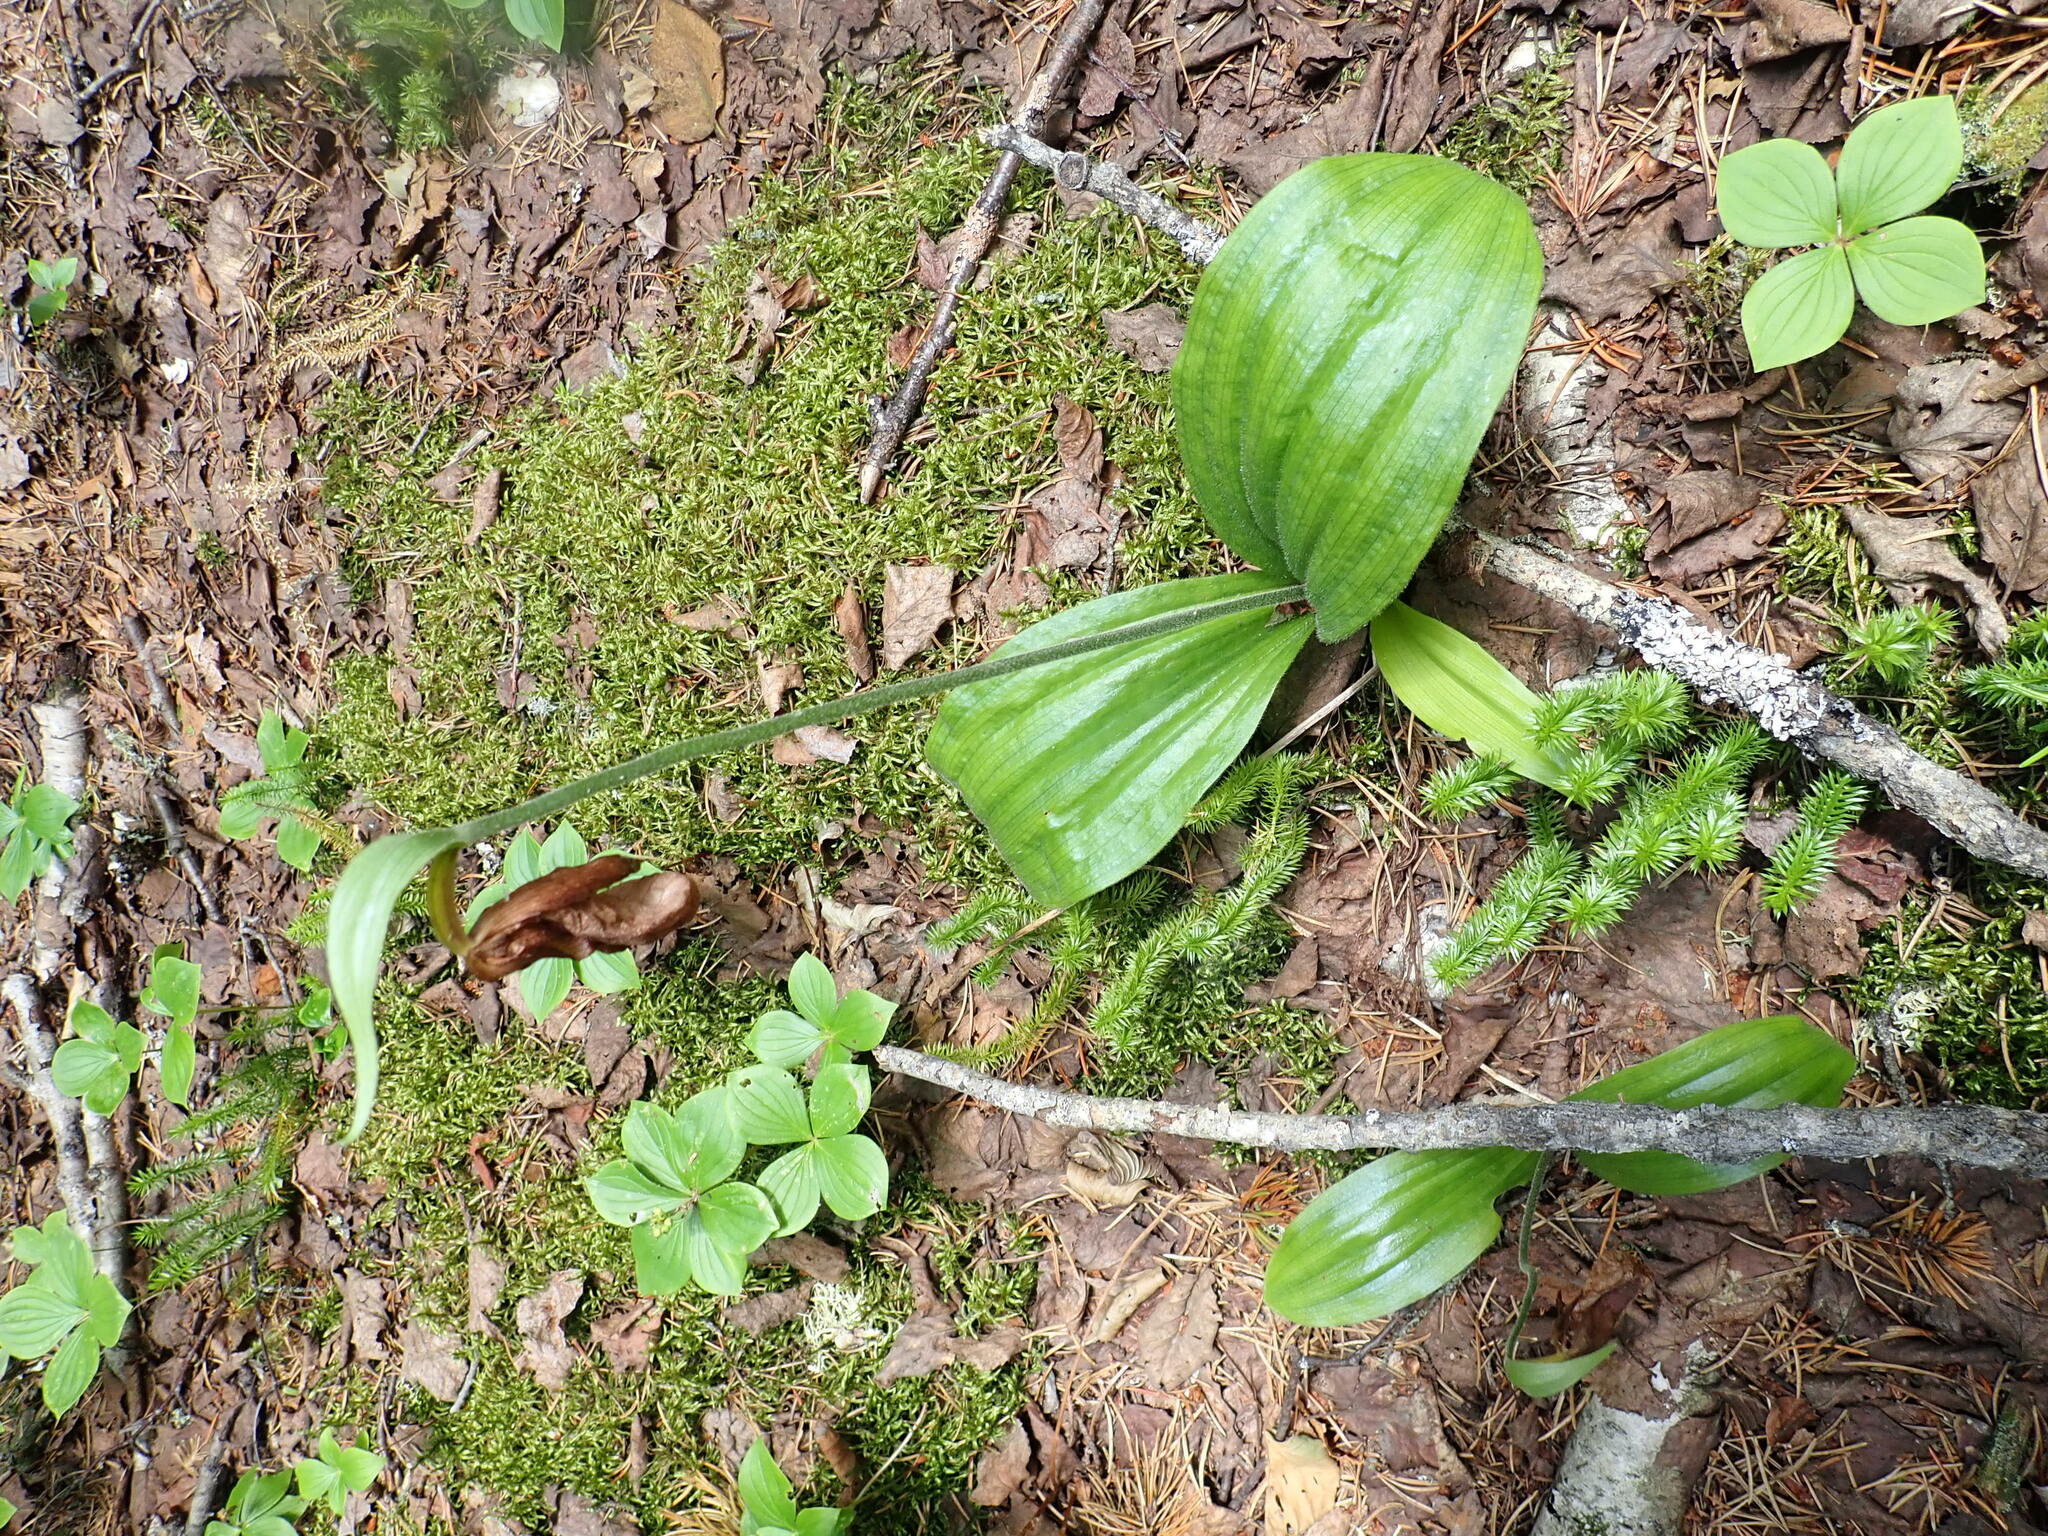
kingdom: Plantae
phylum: Tracheophyta
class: Liliopsida
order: Asparagales
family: Orchidaceae
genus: Cypripedium
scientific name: Cypripedium acaule
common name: Pink lady's-slipper
